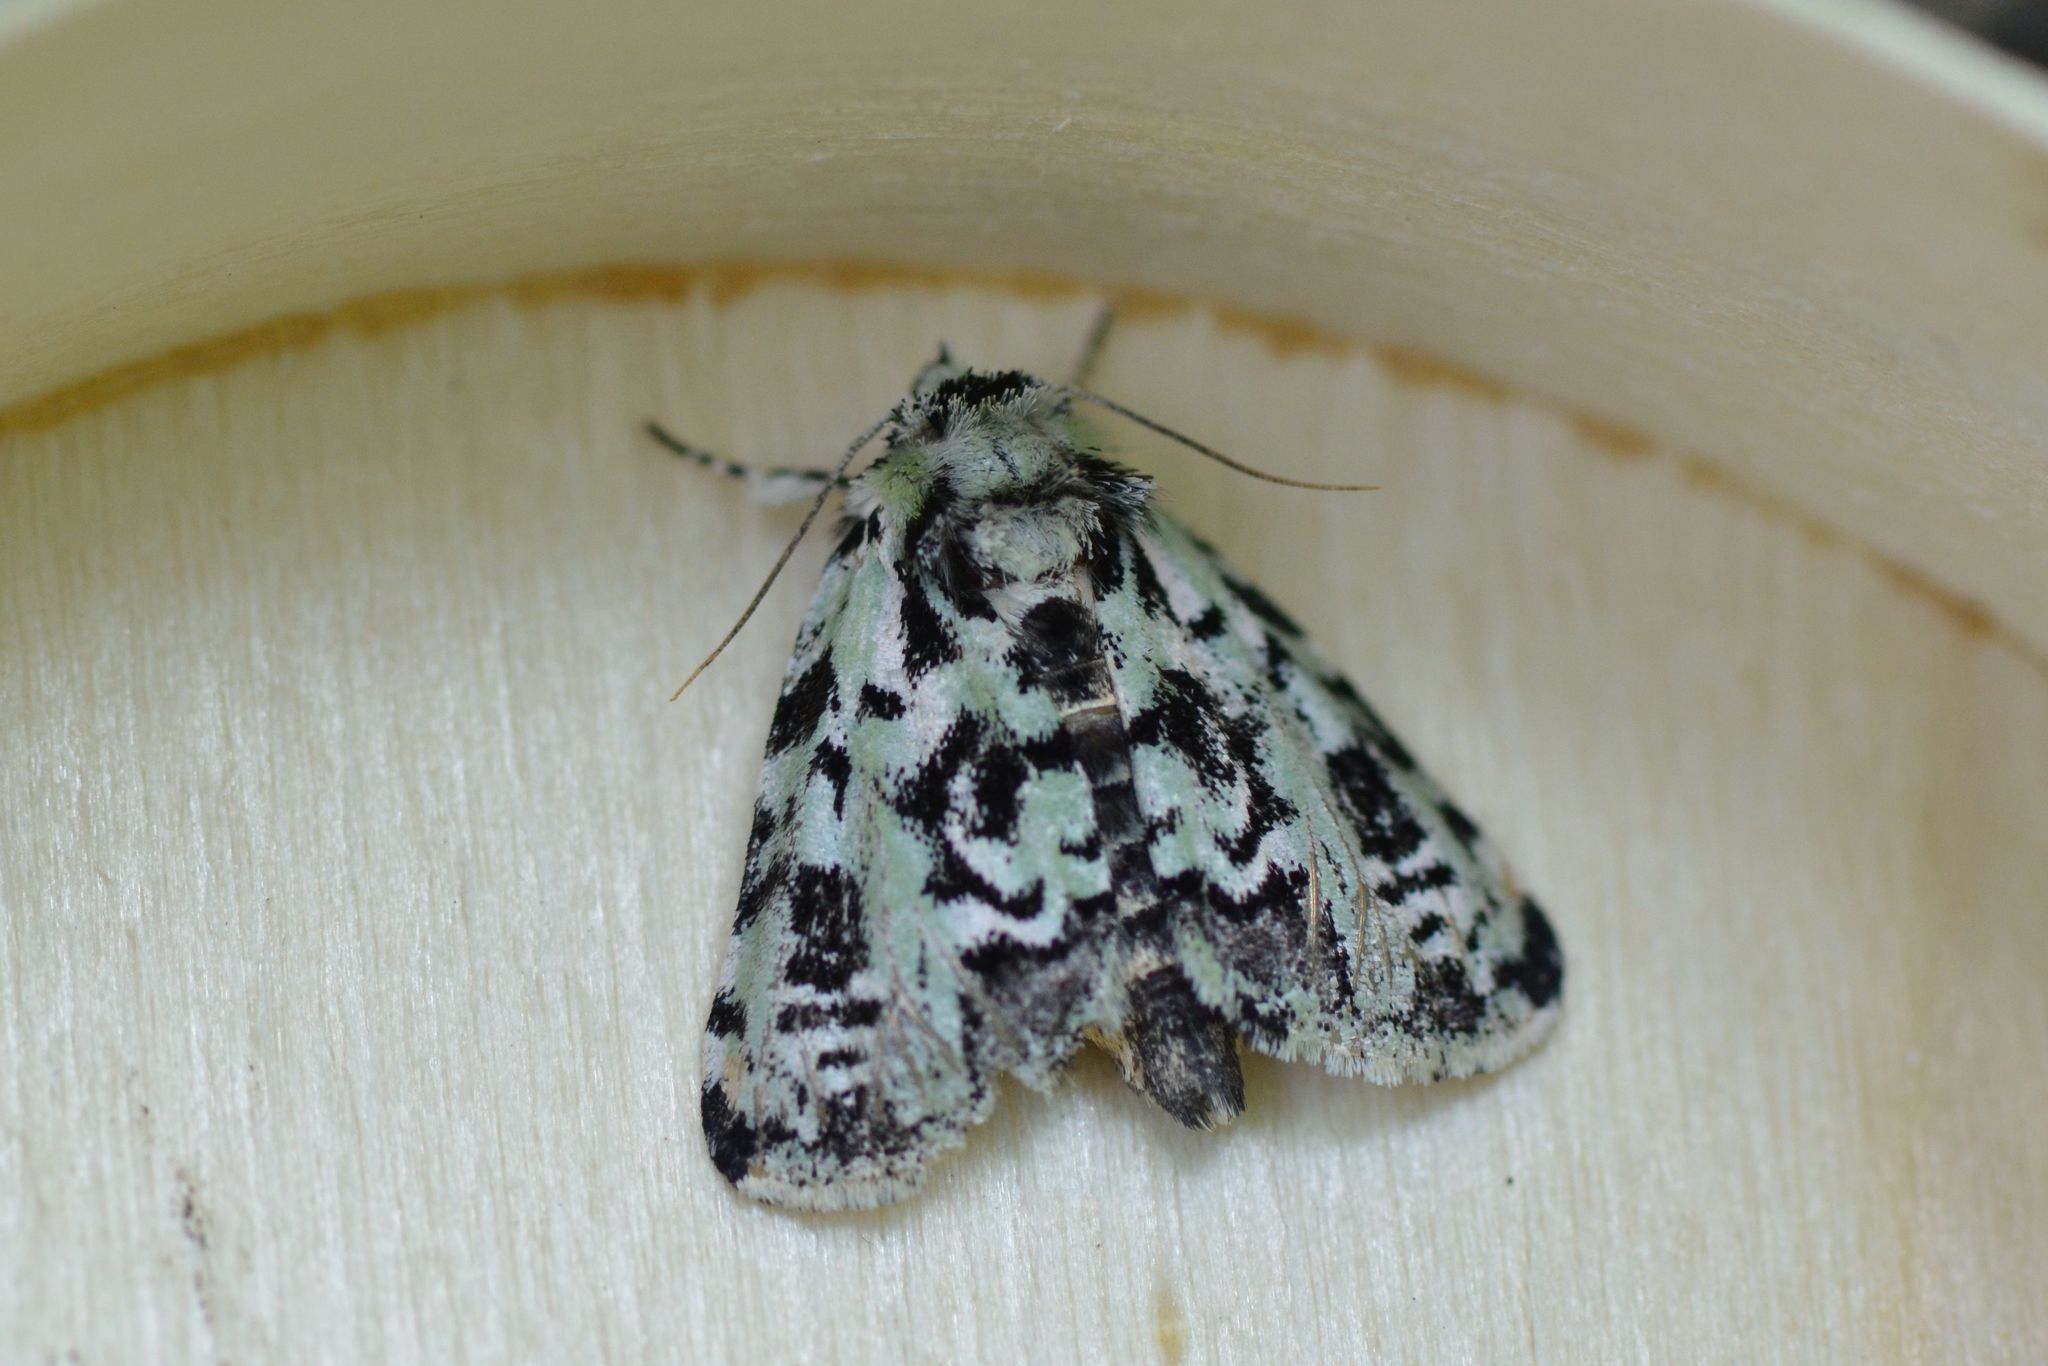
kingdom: Animalia
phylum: Arthropoda
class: Insecta
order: Lepidoptera
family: Noctuidae
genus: Moma
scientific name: Moma alpium
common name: Scarce merveille du jour
